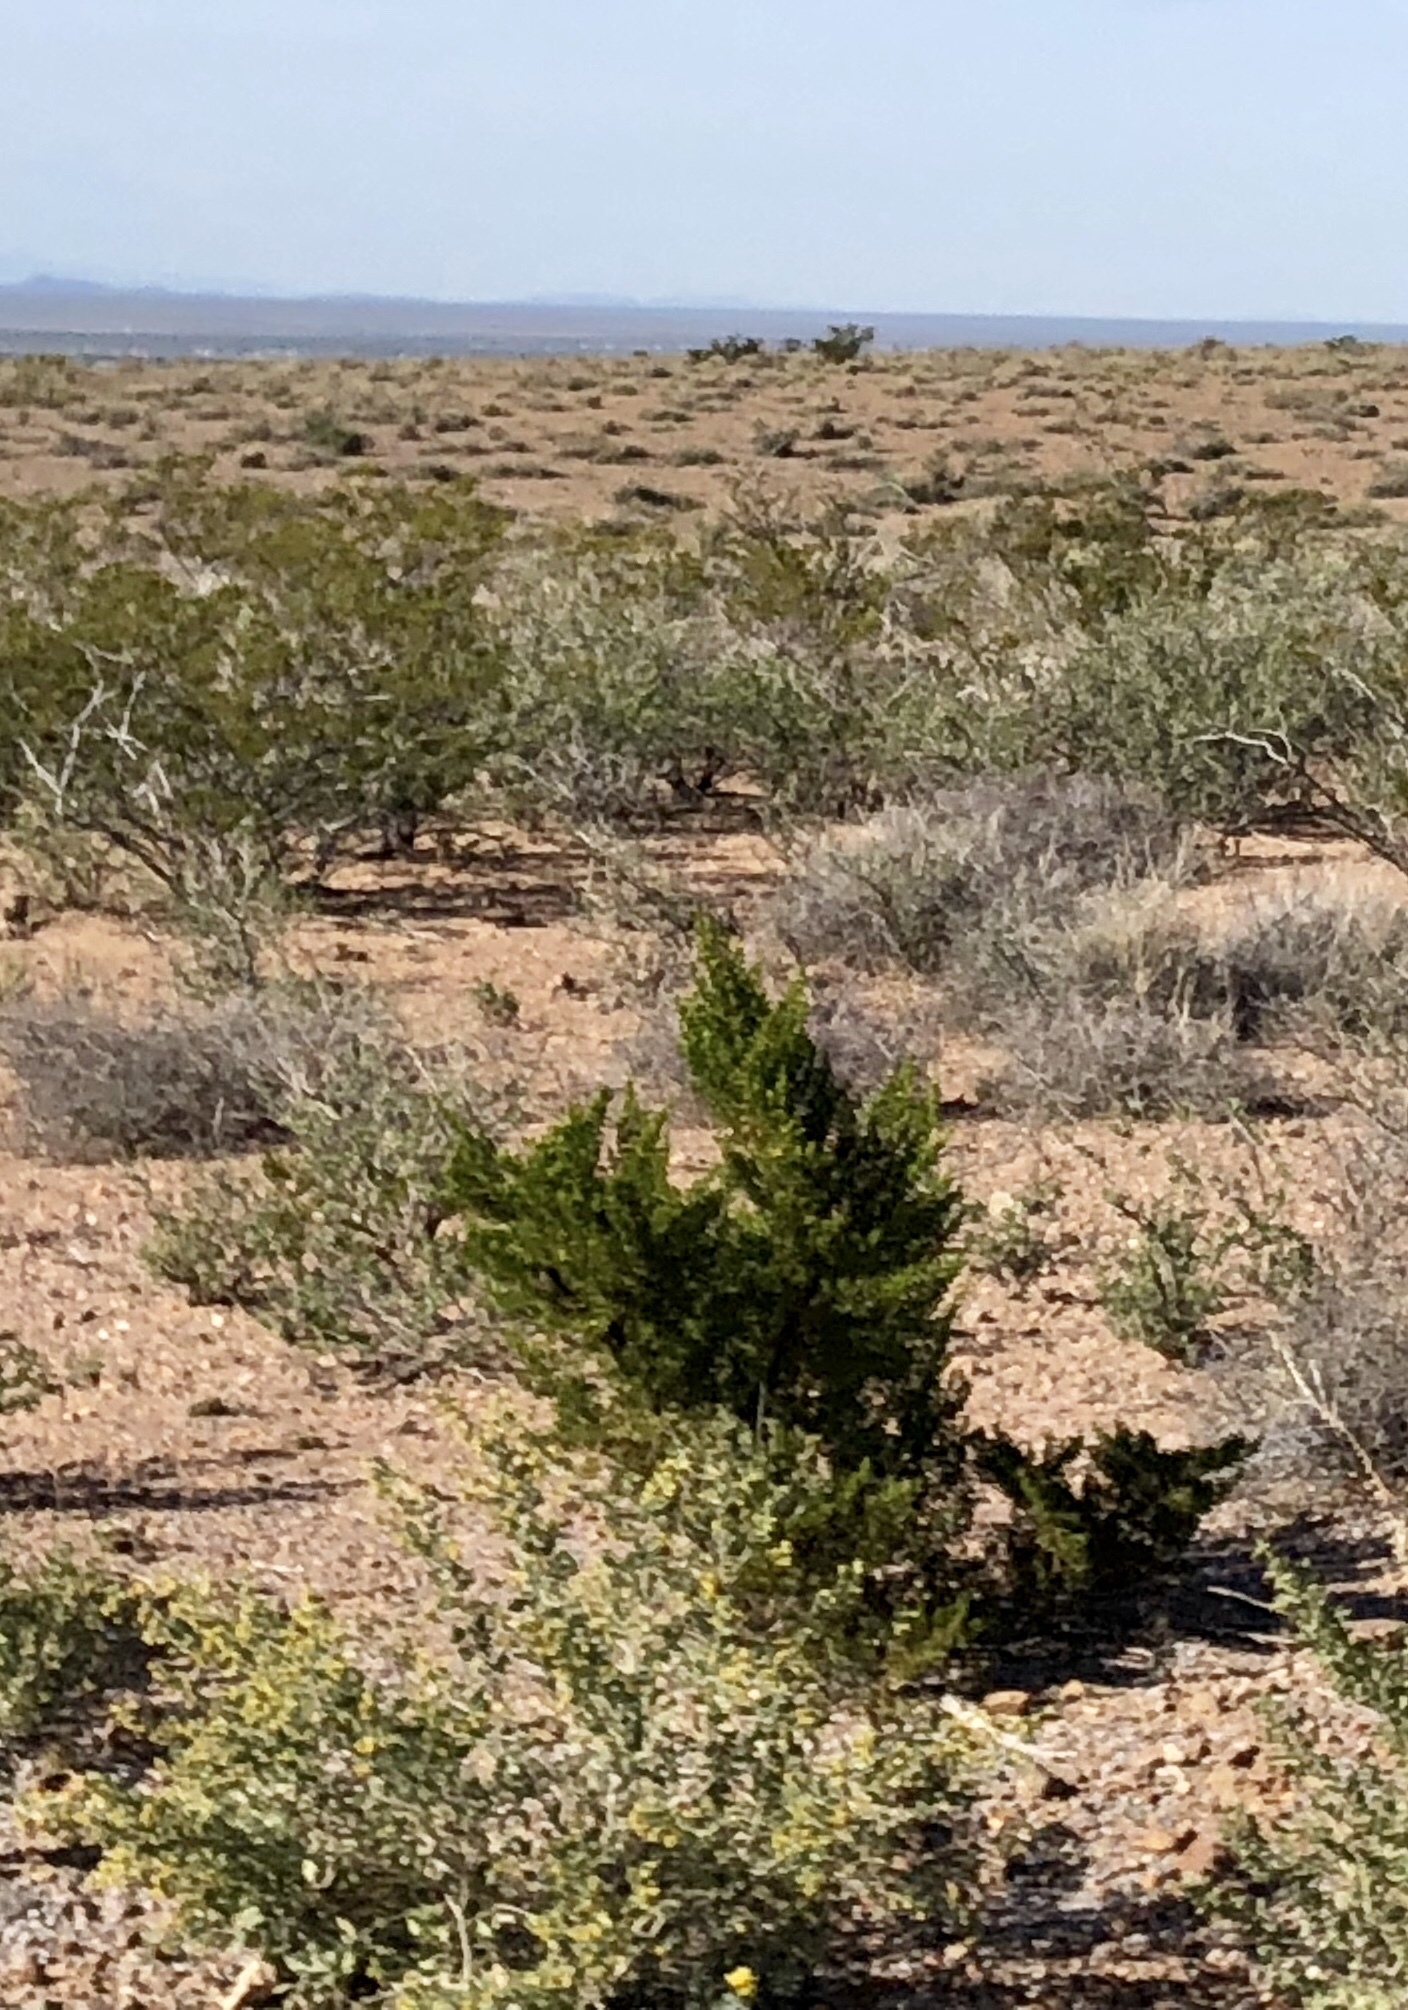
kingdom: Plantae
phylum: Tracheophyta
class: Magnoliopsida
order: Zygophyllales
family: Zygophyllaceae
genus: Larrea
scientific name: Larrea tridentata
